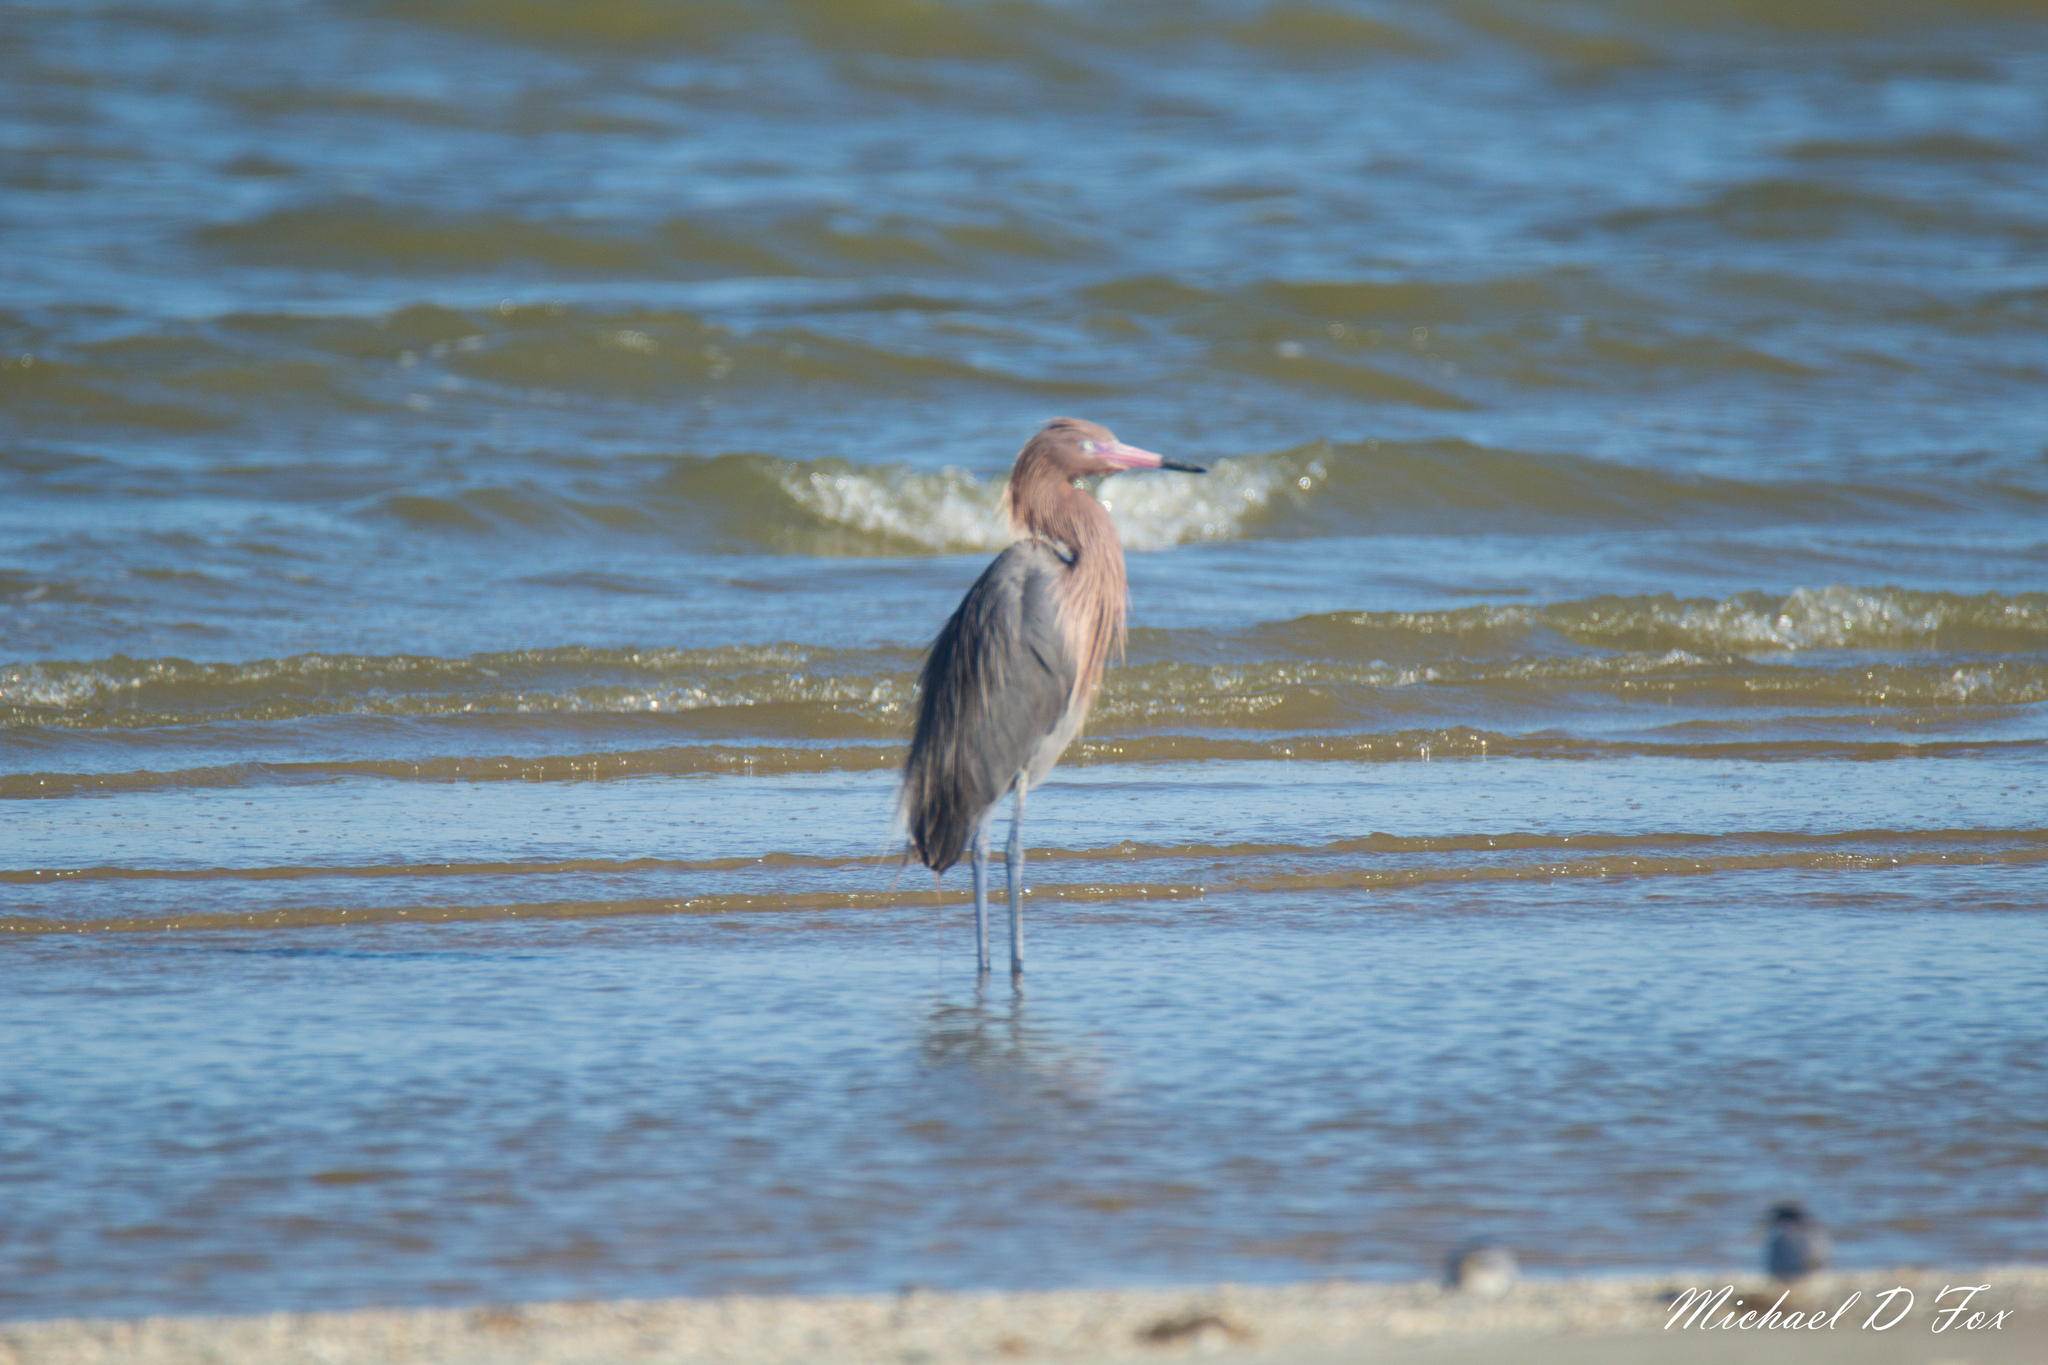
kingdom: Animalia
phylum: Chordata
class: Aves
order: Pelecaniformes
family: Ardeidae
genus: Egretta
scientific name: Egretta rufescens
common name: Reddish egret
